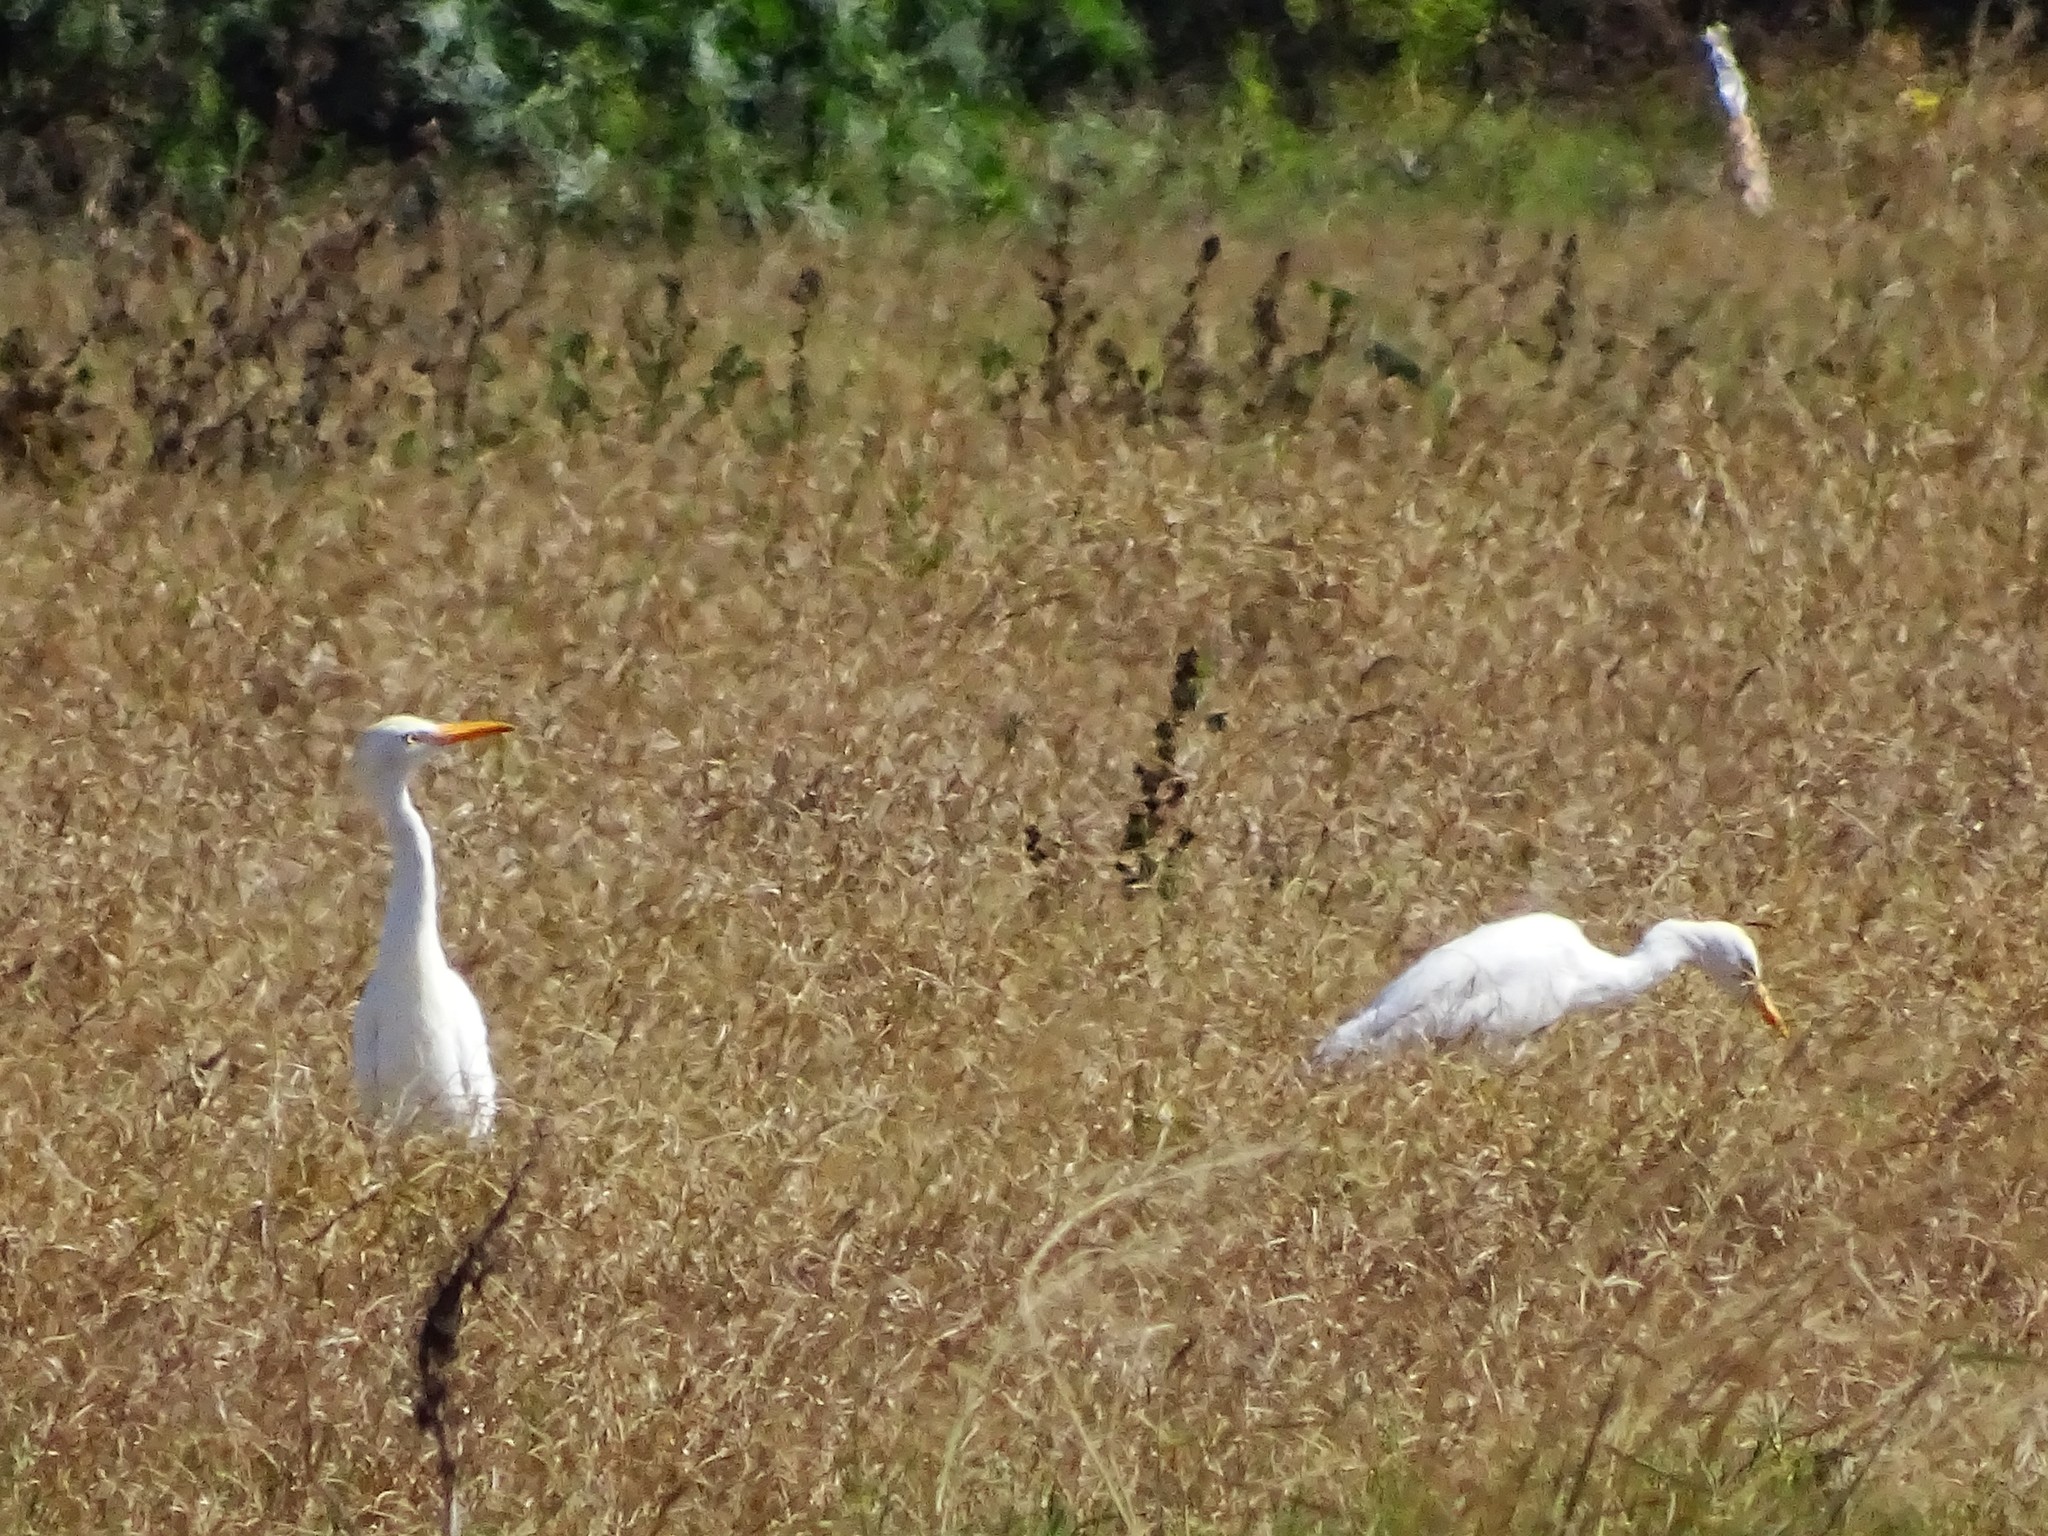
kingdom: Animalia
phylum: Chordata
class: Aves
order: Pelecaniformes
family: Ardeidae
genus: Bubulcus
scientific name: Bubulcus ibis
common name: Cattle egret
